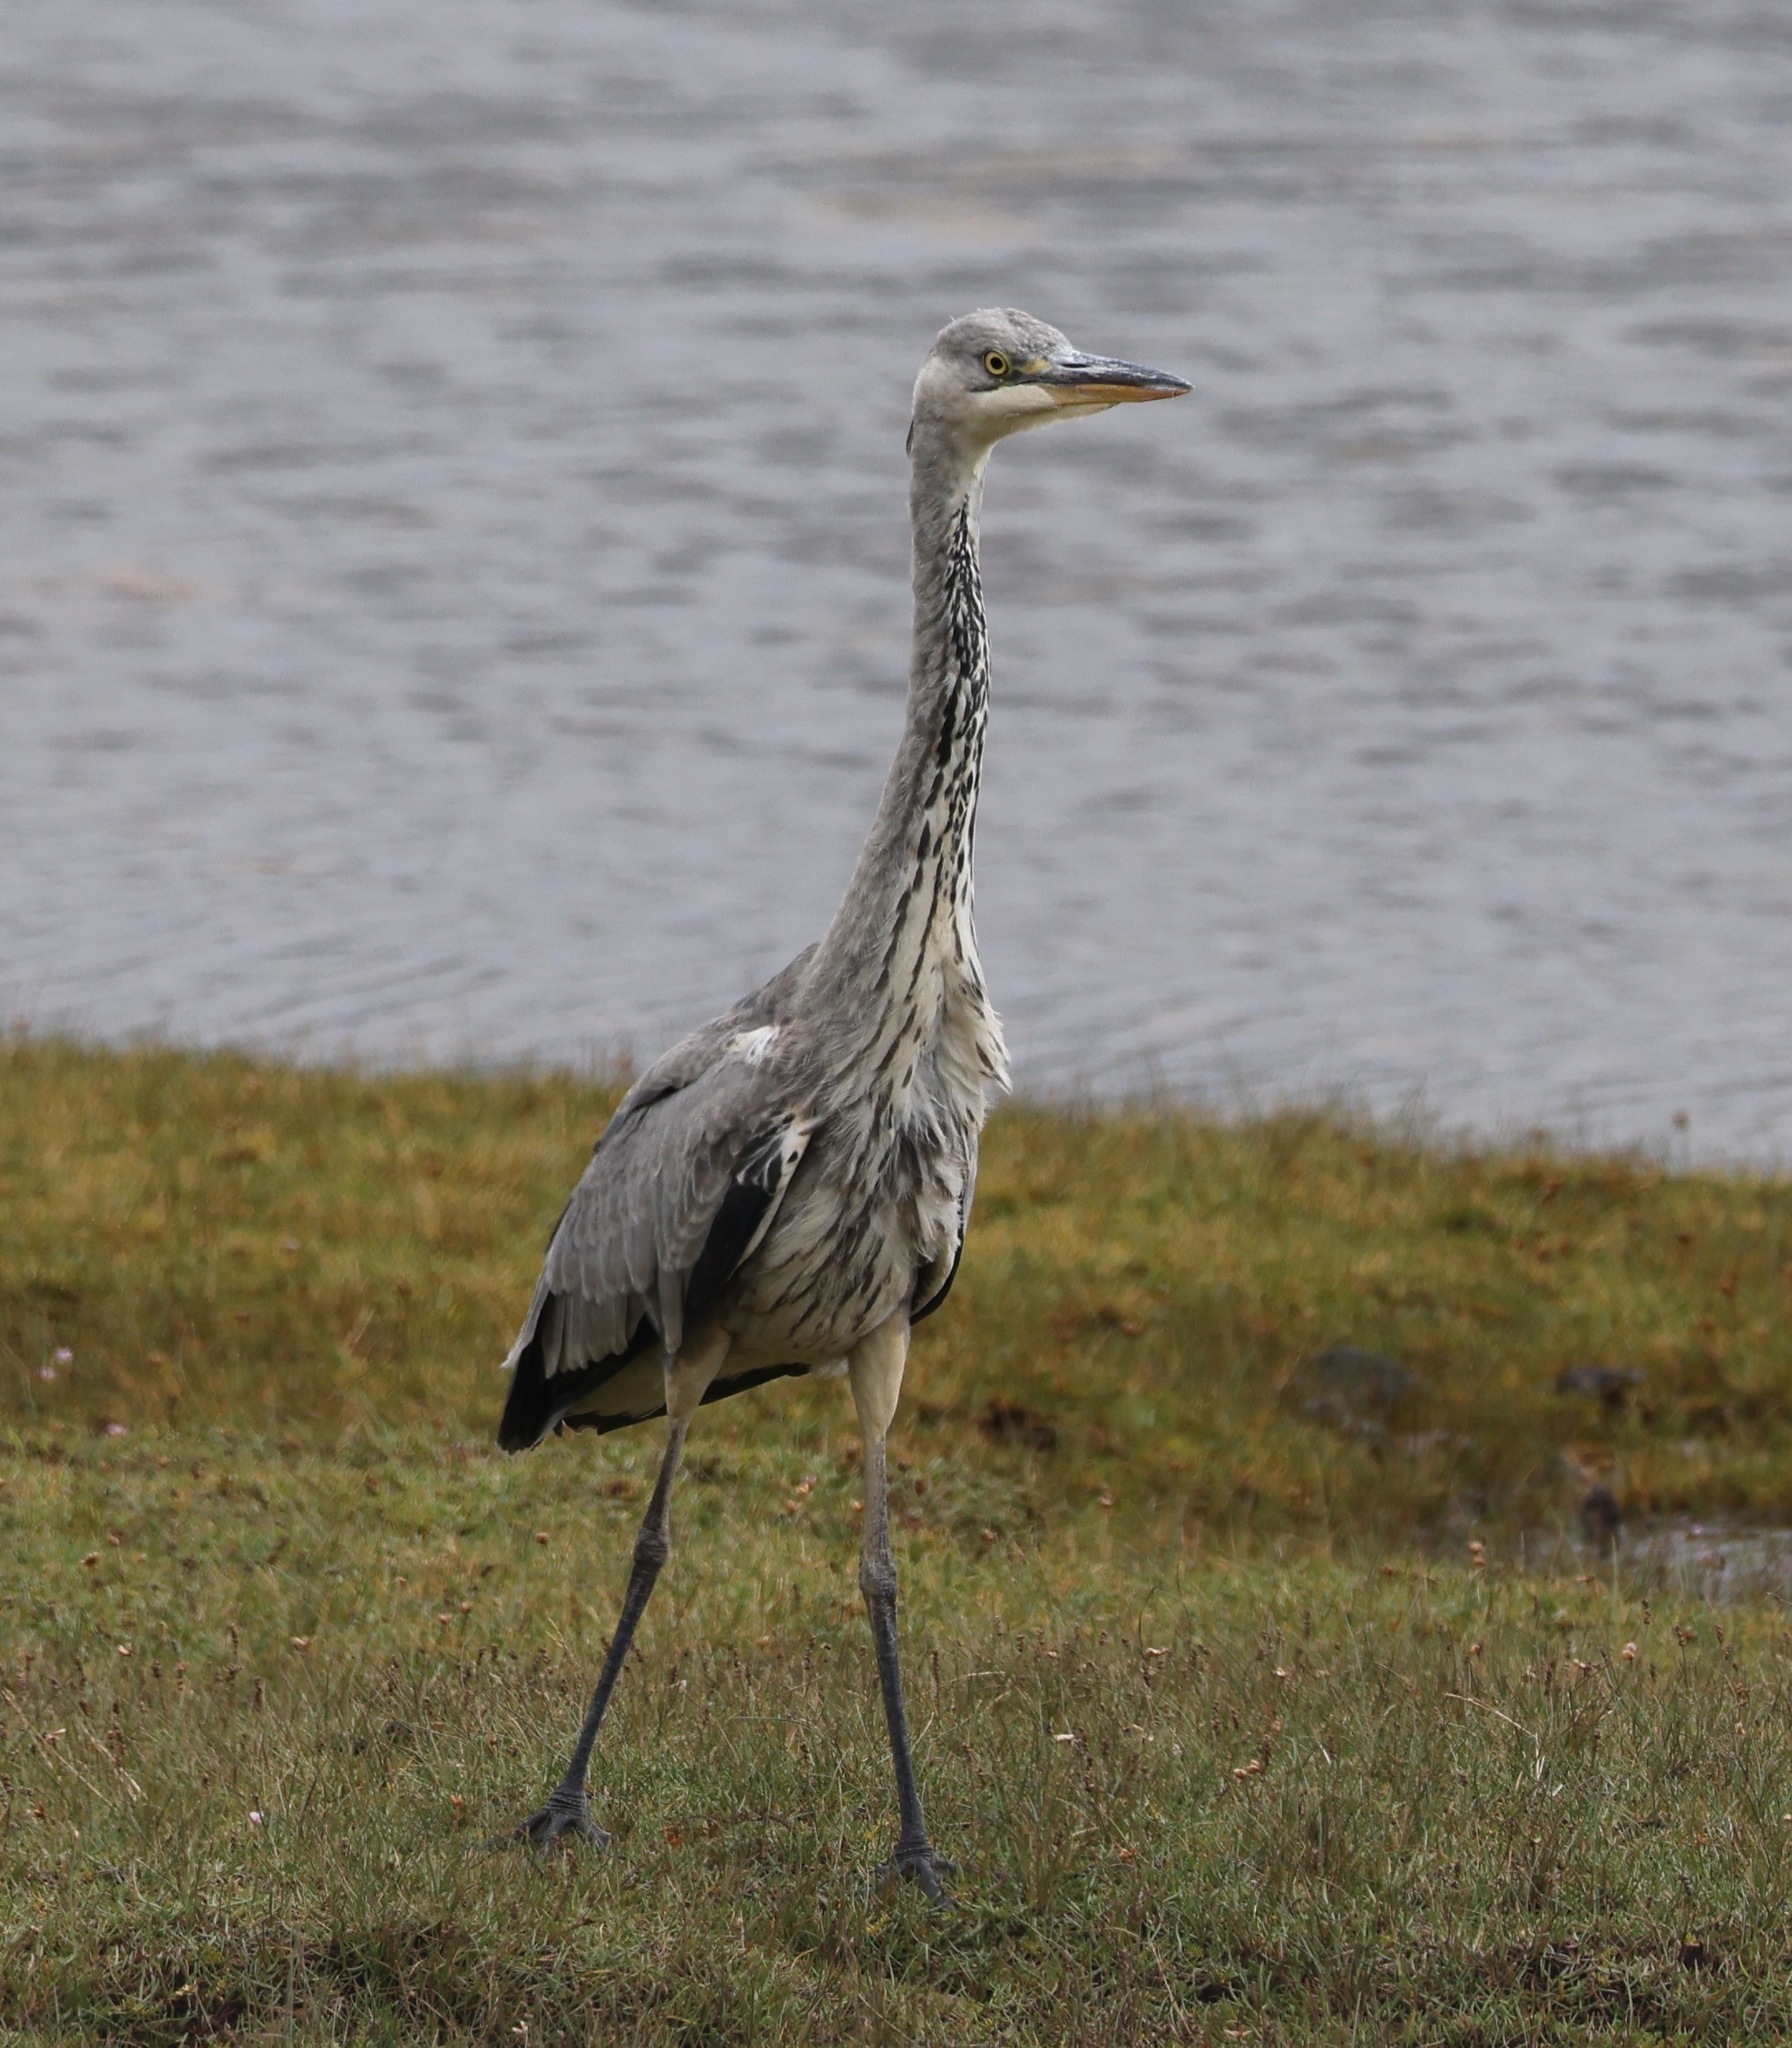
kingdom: Animalia
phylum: Chordata
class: Aves
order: Pelecaniformes
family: Ardeidae
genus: Ardea
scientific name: Ardea cinerea
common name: Grey heron
